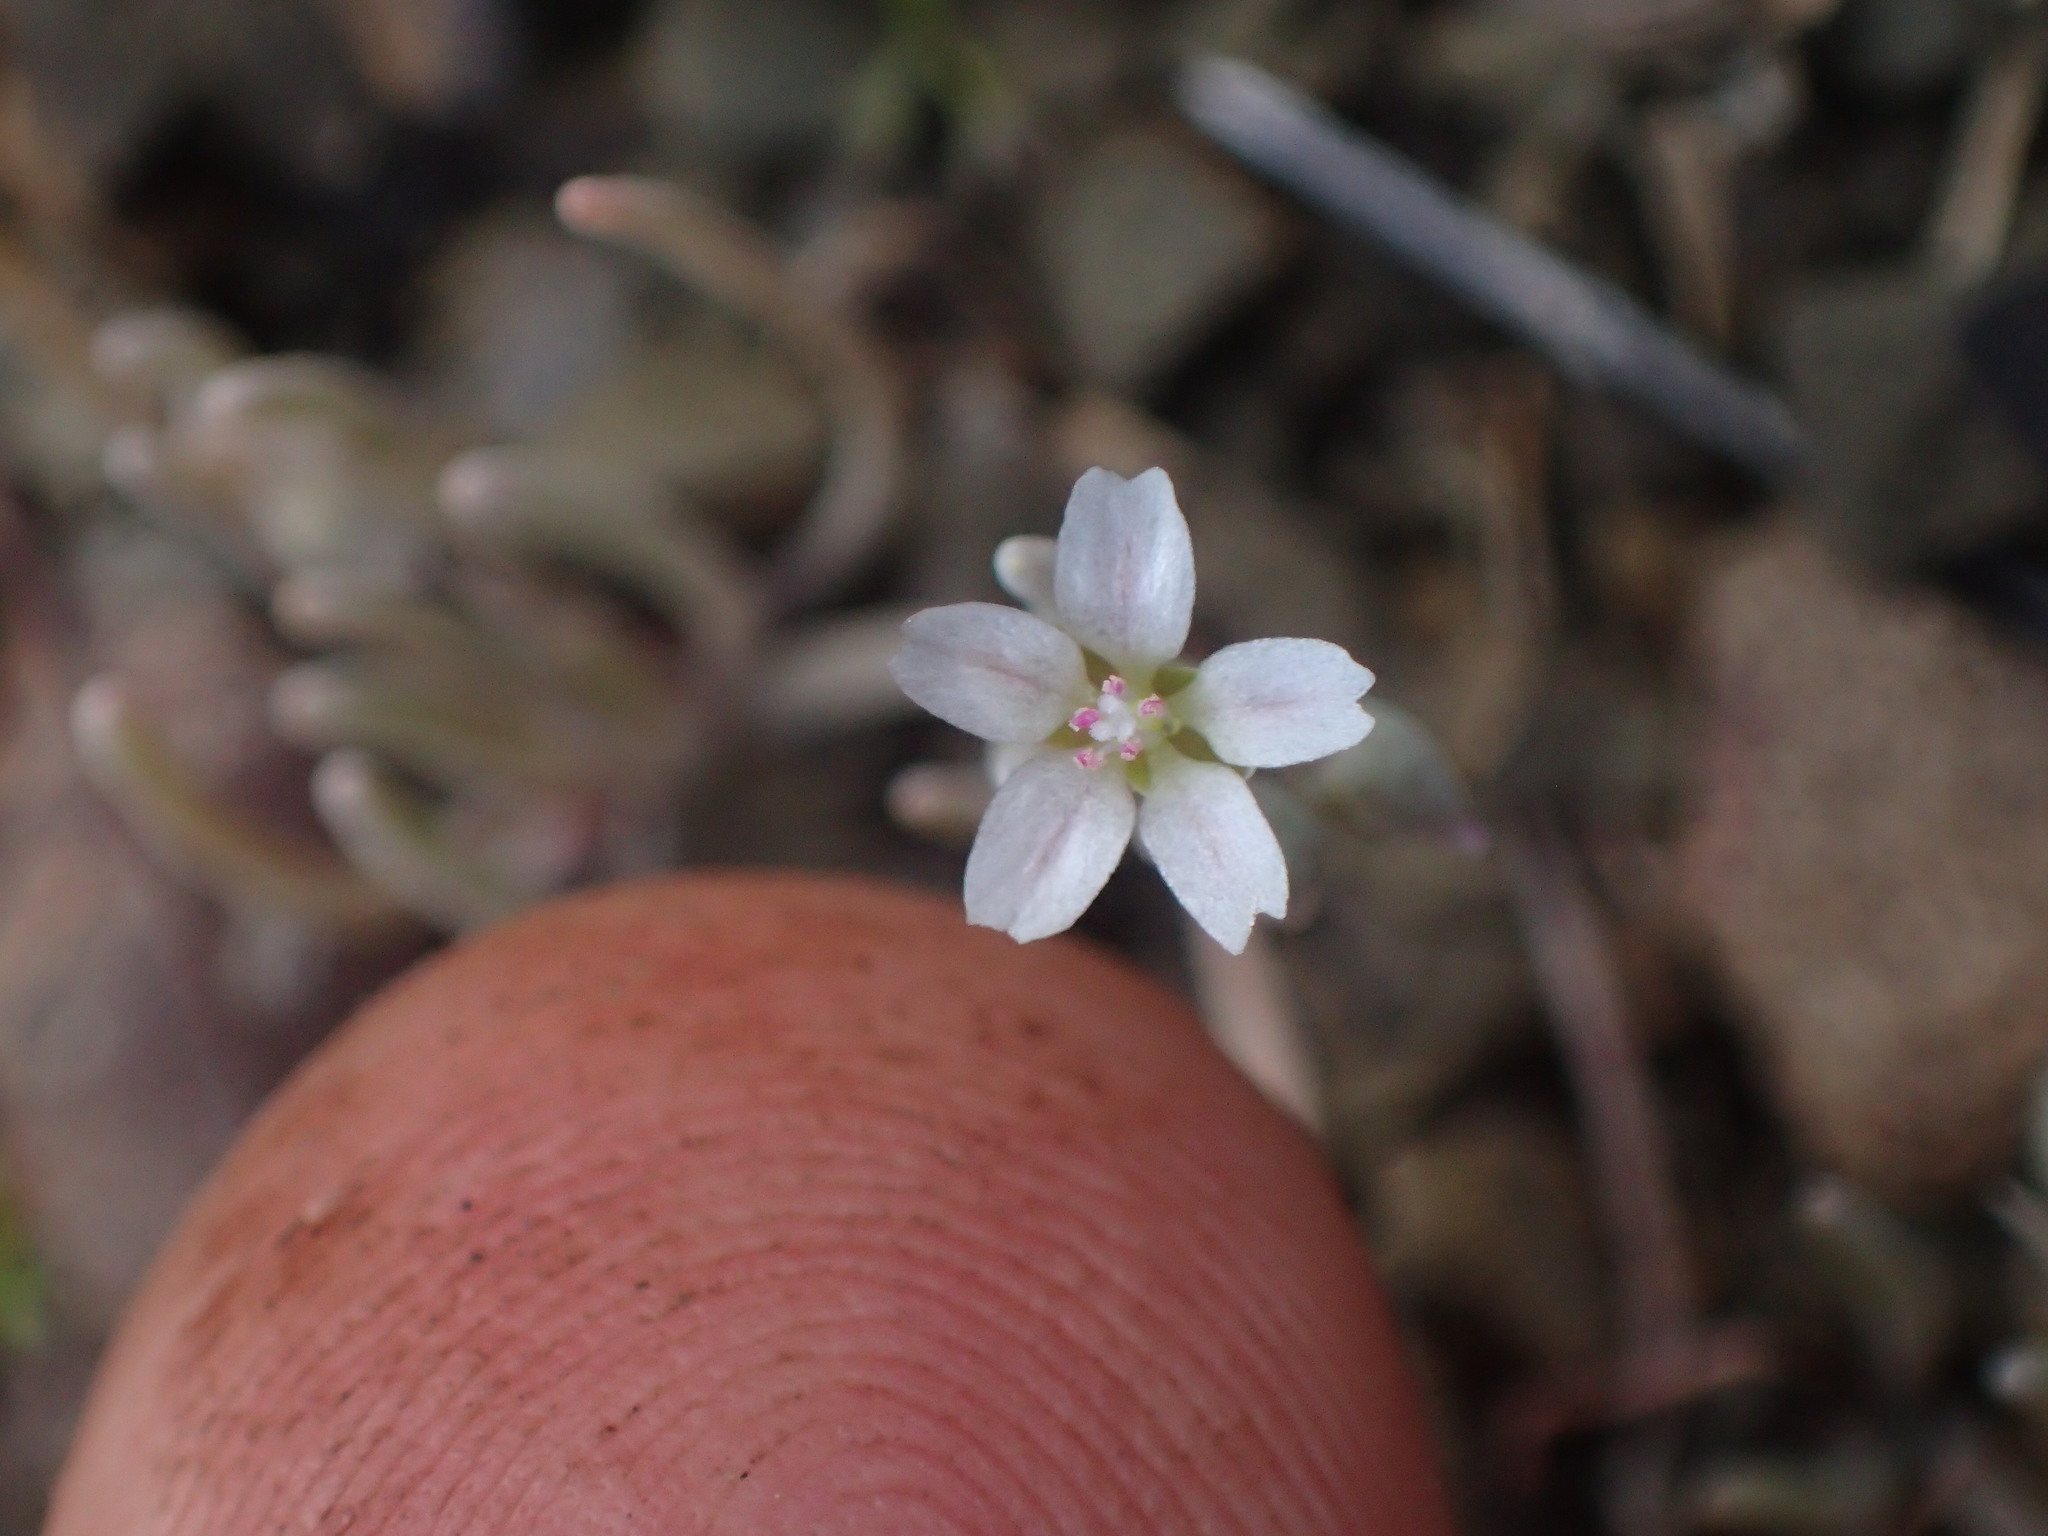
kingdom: Plantae
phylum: Tracheophyta
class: Magnoliopsida
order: Caryophyllales
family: Montiaceae
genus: Claytonia
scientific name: Claytonia exigua
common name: Pale spring beauty
